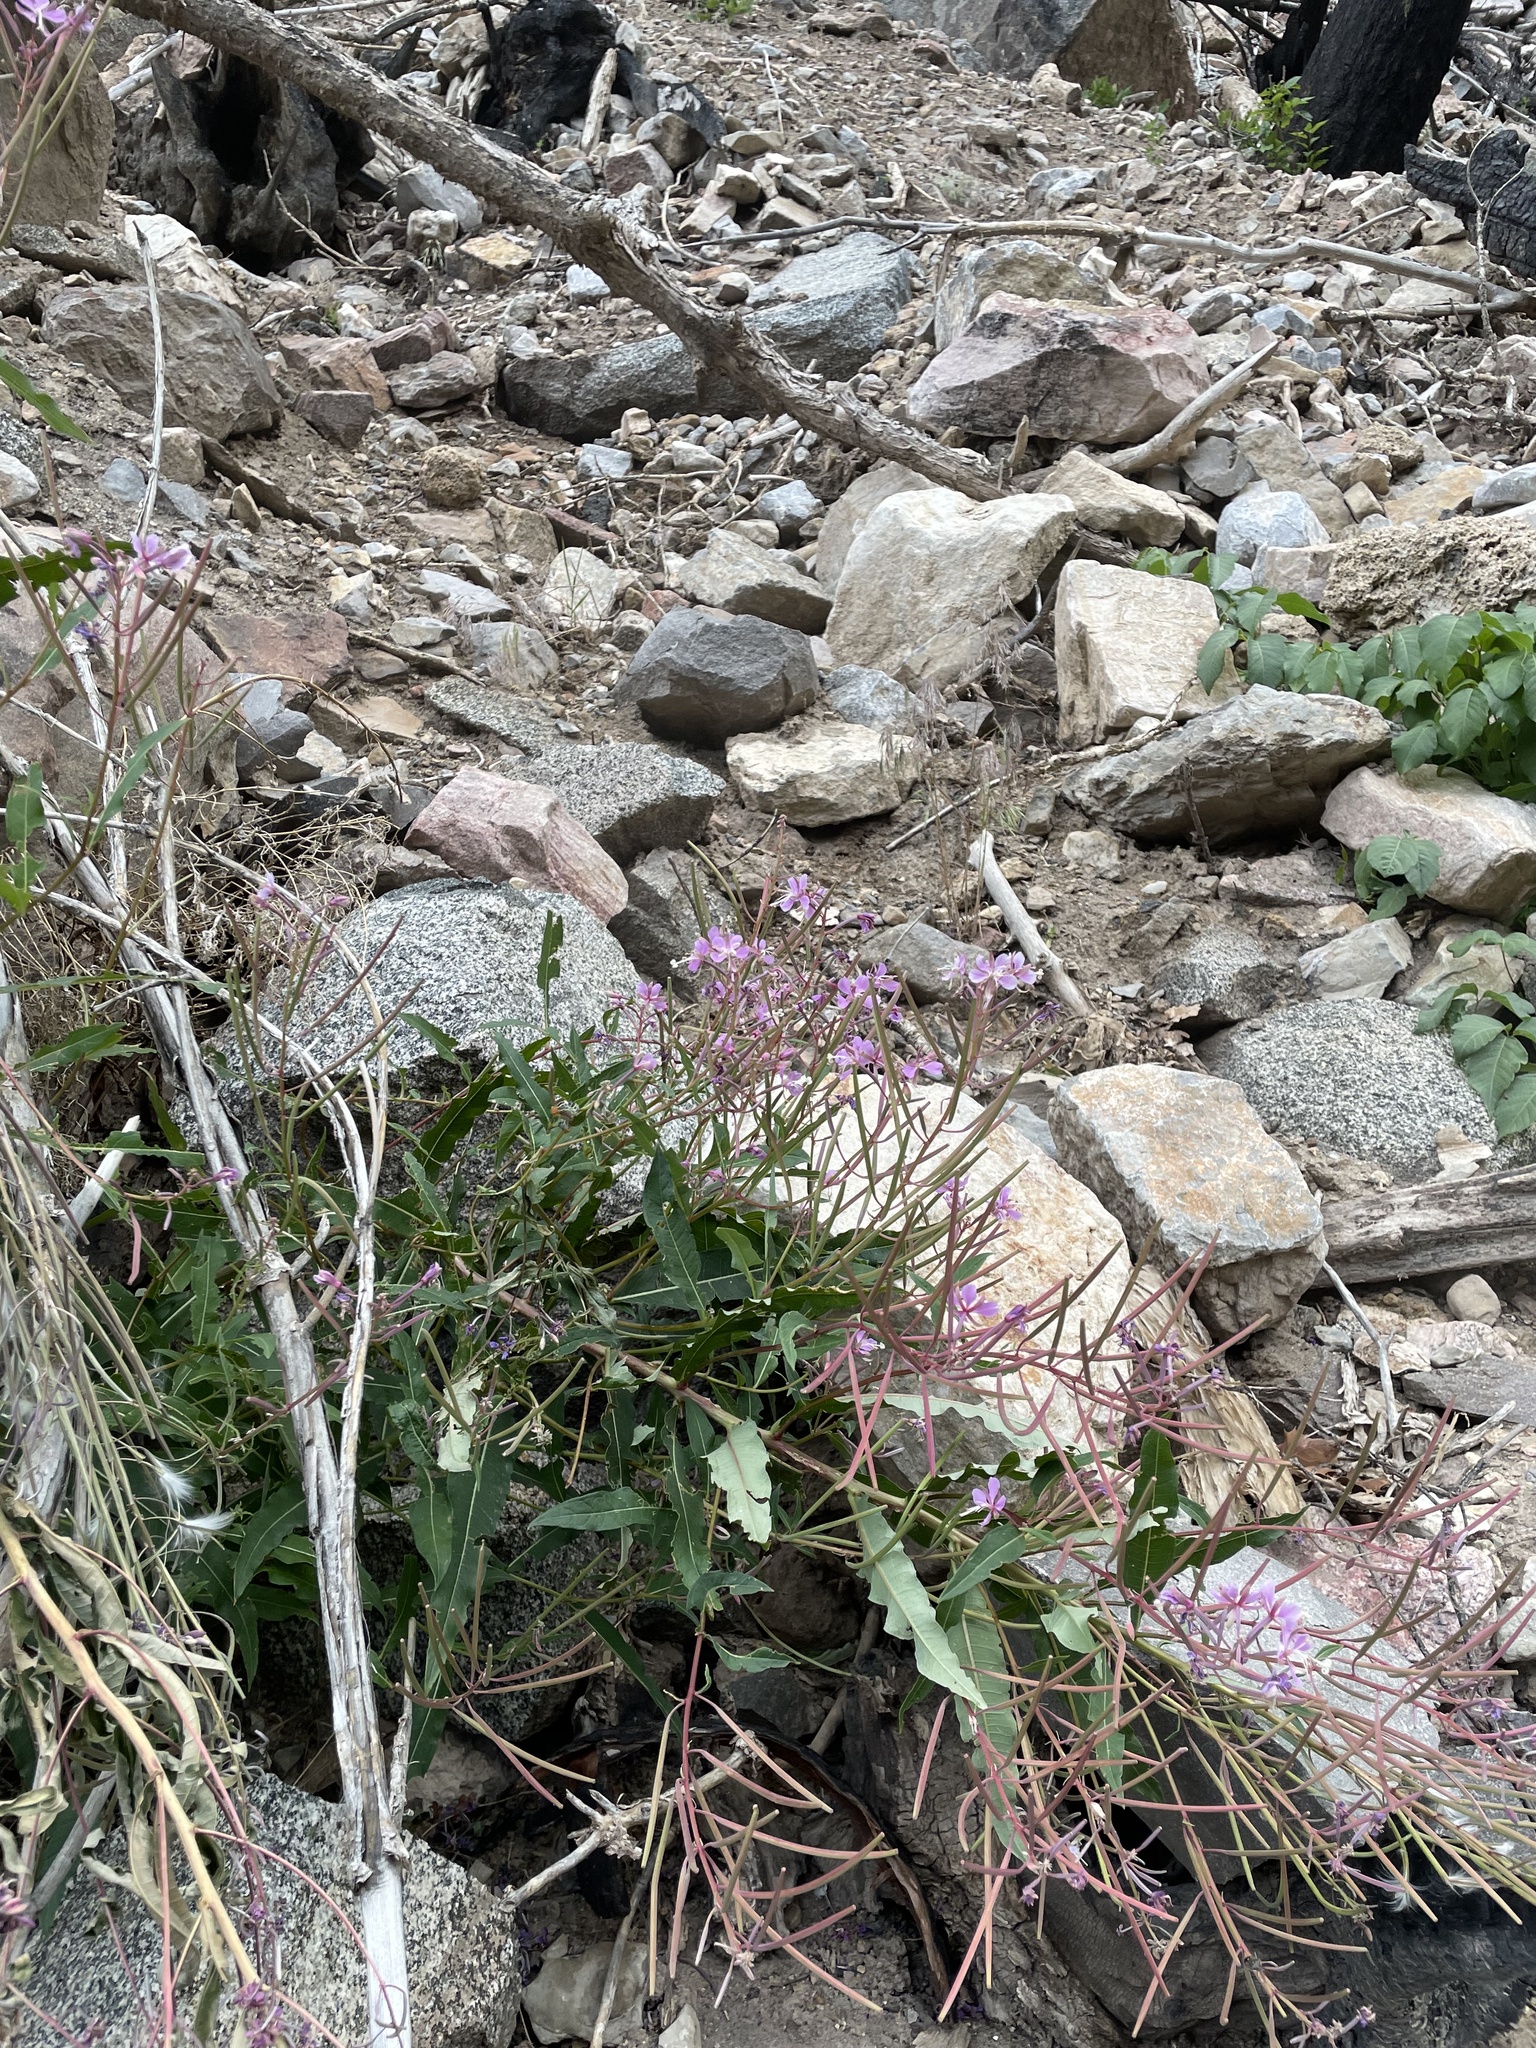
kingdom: Plantae
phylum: Tracheophyta
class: Magnoliopsida
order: Myrtales
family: Onagraceae
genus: Chamaenerion
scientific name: Chamaenerion angustifolium
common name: Fireweed
